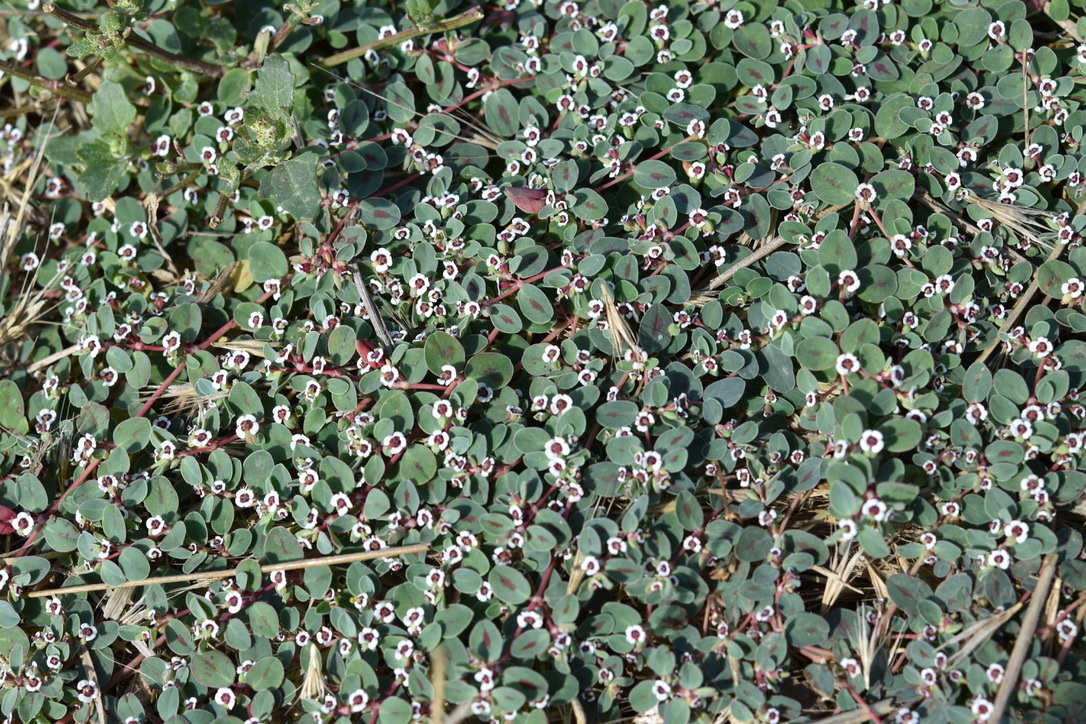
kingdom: Plantae
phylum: Tracheophyta
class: Magnoliopsida
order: Malpighiales
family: Euphorbiaceae
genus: Euphorbia
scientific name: Euphorbia albomarginata
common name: Whitemargin sandmat
